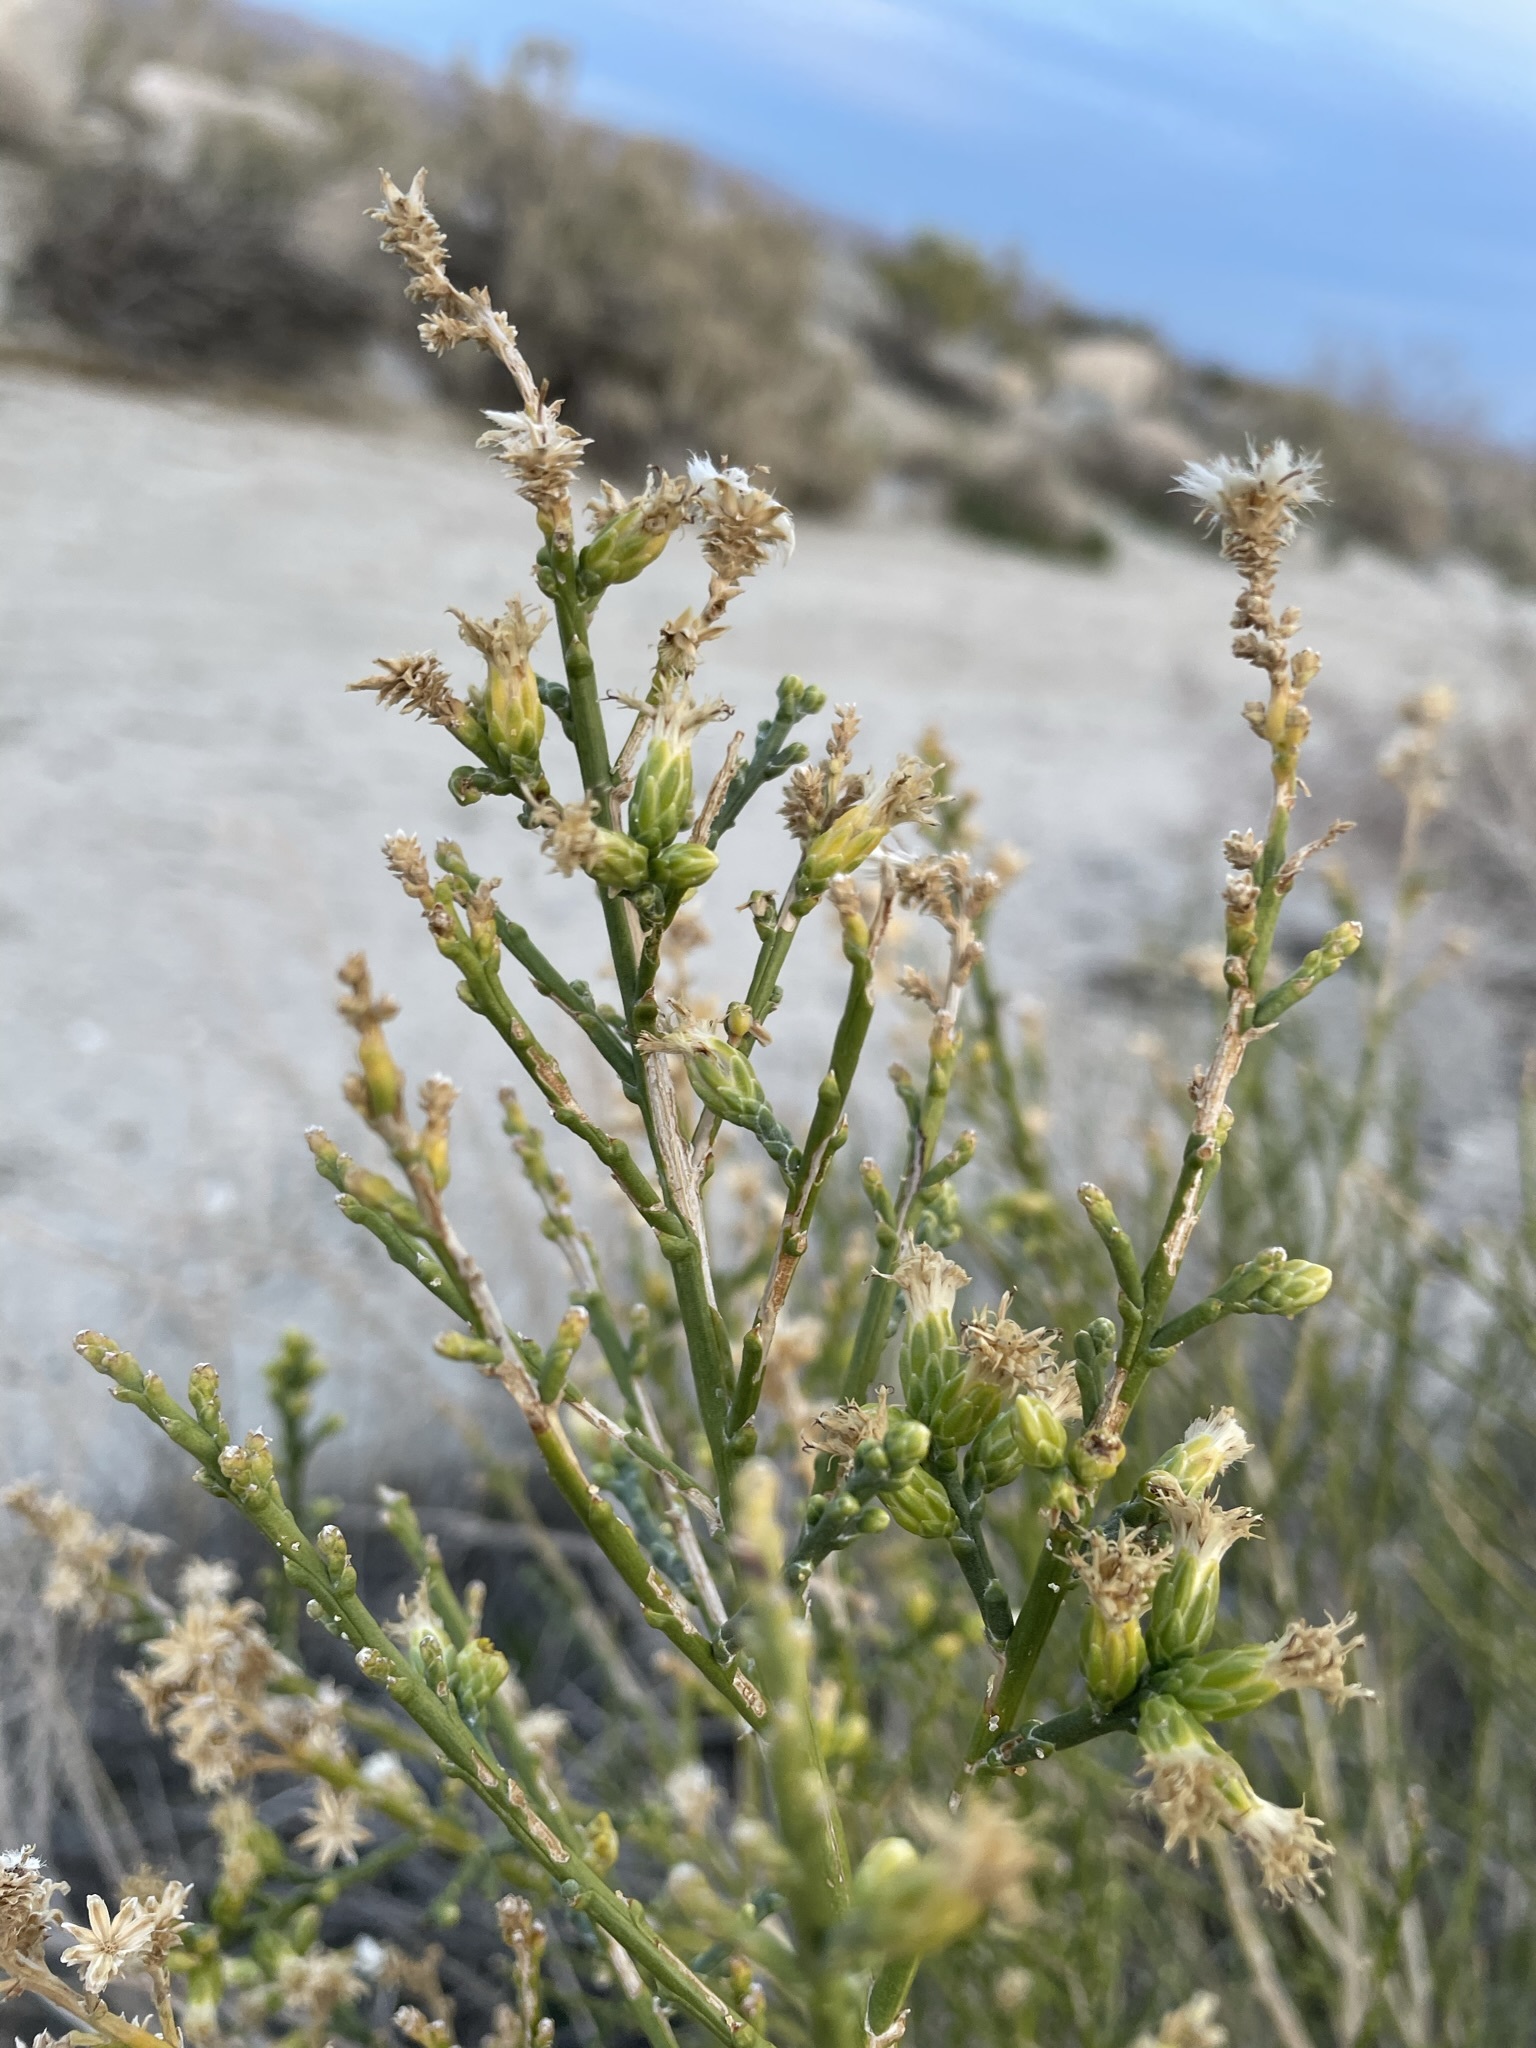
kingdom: Plantae
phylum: Tracheophyta
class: Magnoliopsida
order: Asterales
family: Asteraceae
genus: Lepidospartum
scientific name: Lepidospartum squamatum
